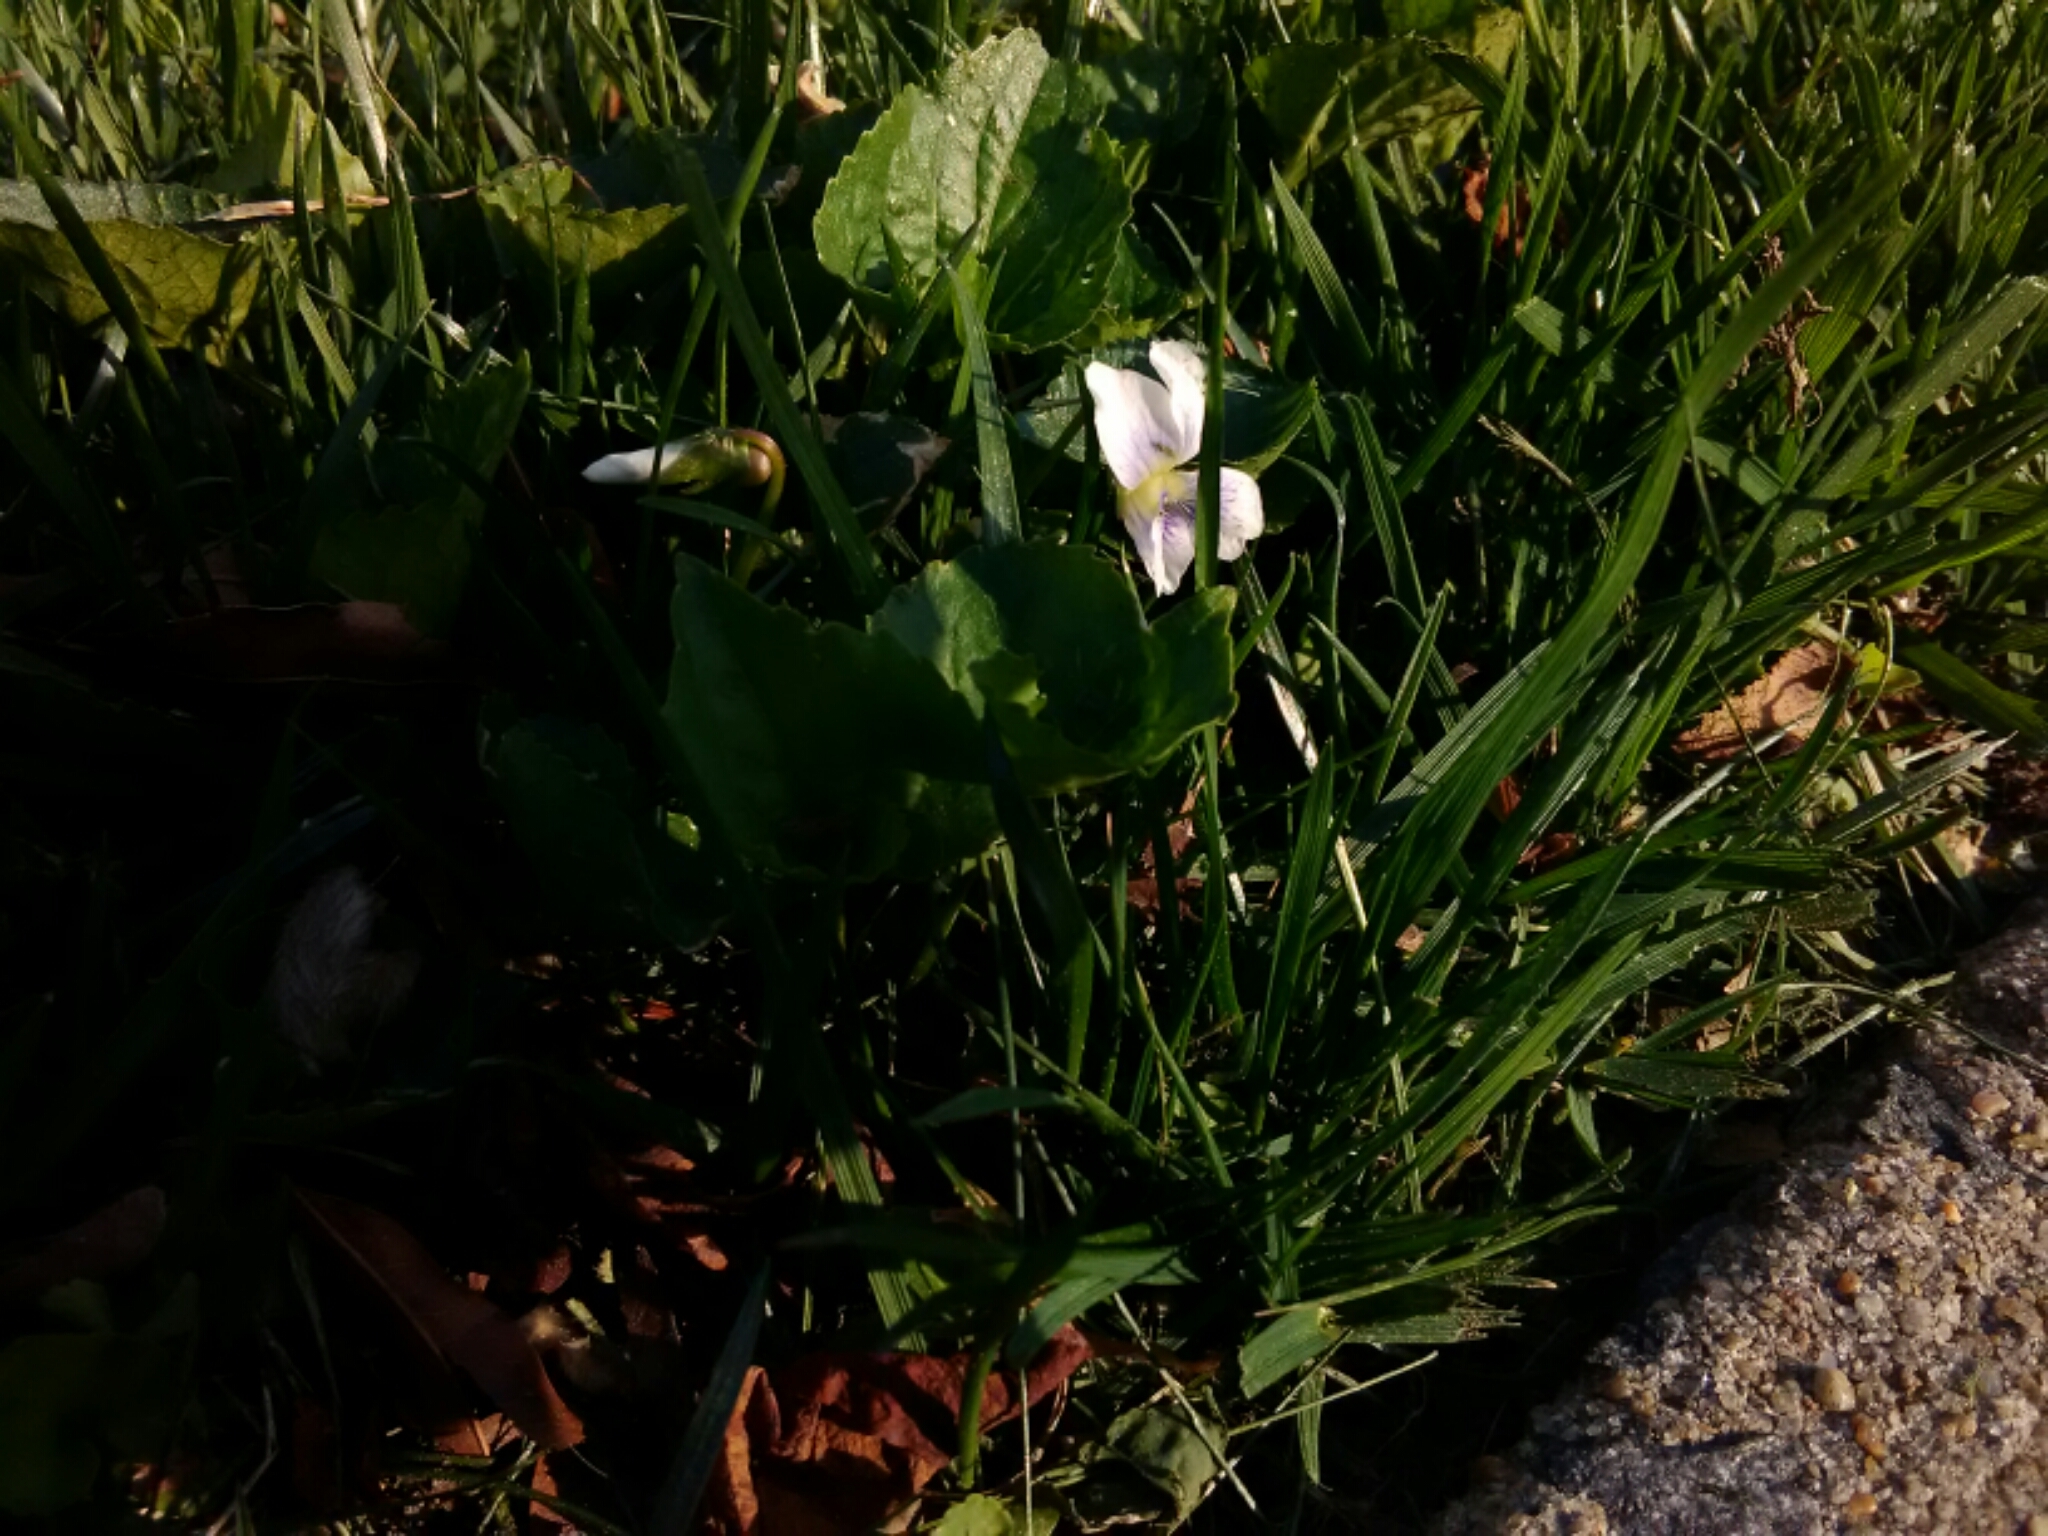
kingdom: Plantae
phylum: Tracheophyta
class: Magnoliopsida
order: Malpighiales
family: Violaceae
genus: Viola
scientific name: Viola sororia
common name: Dooryard violet
